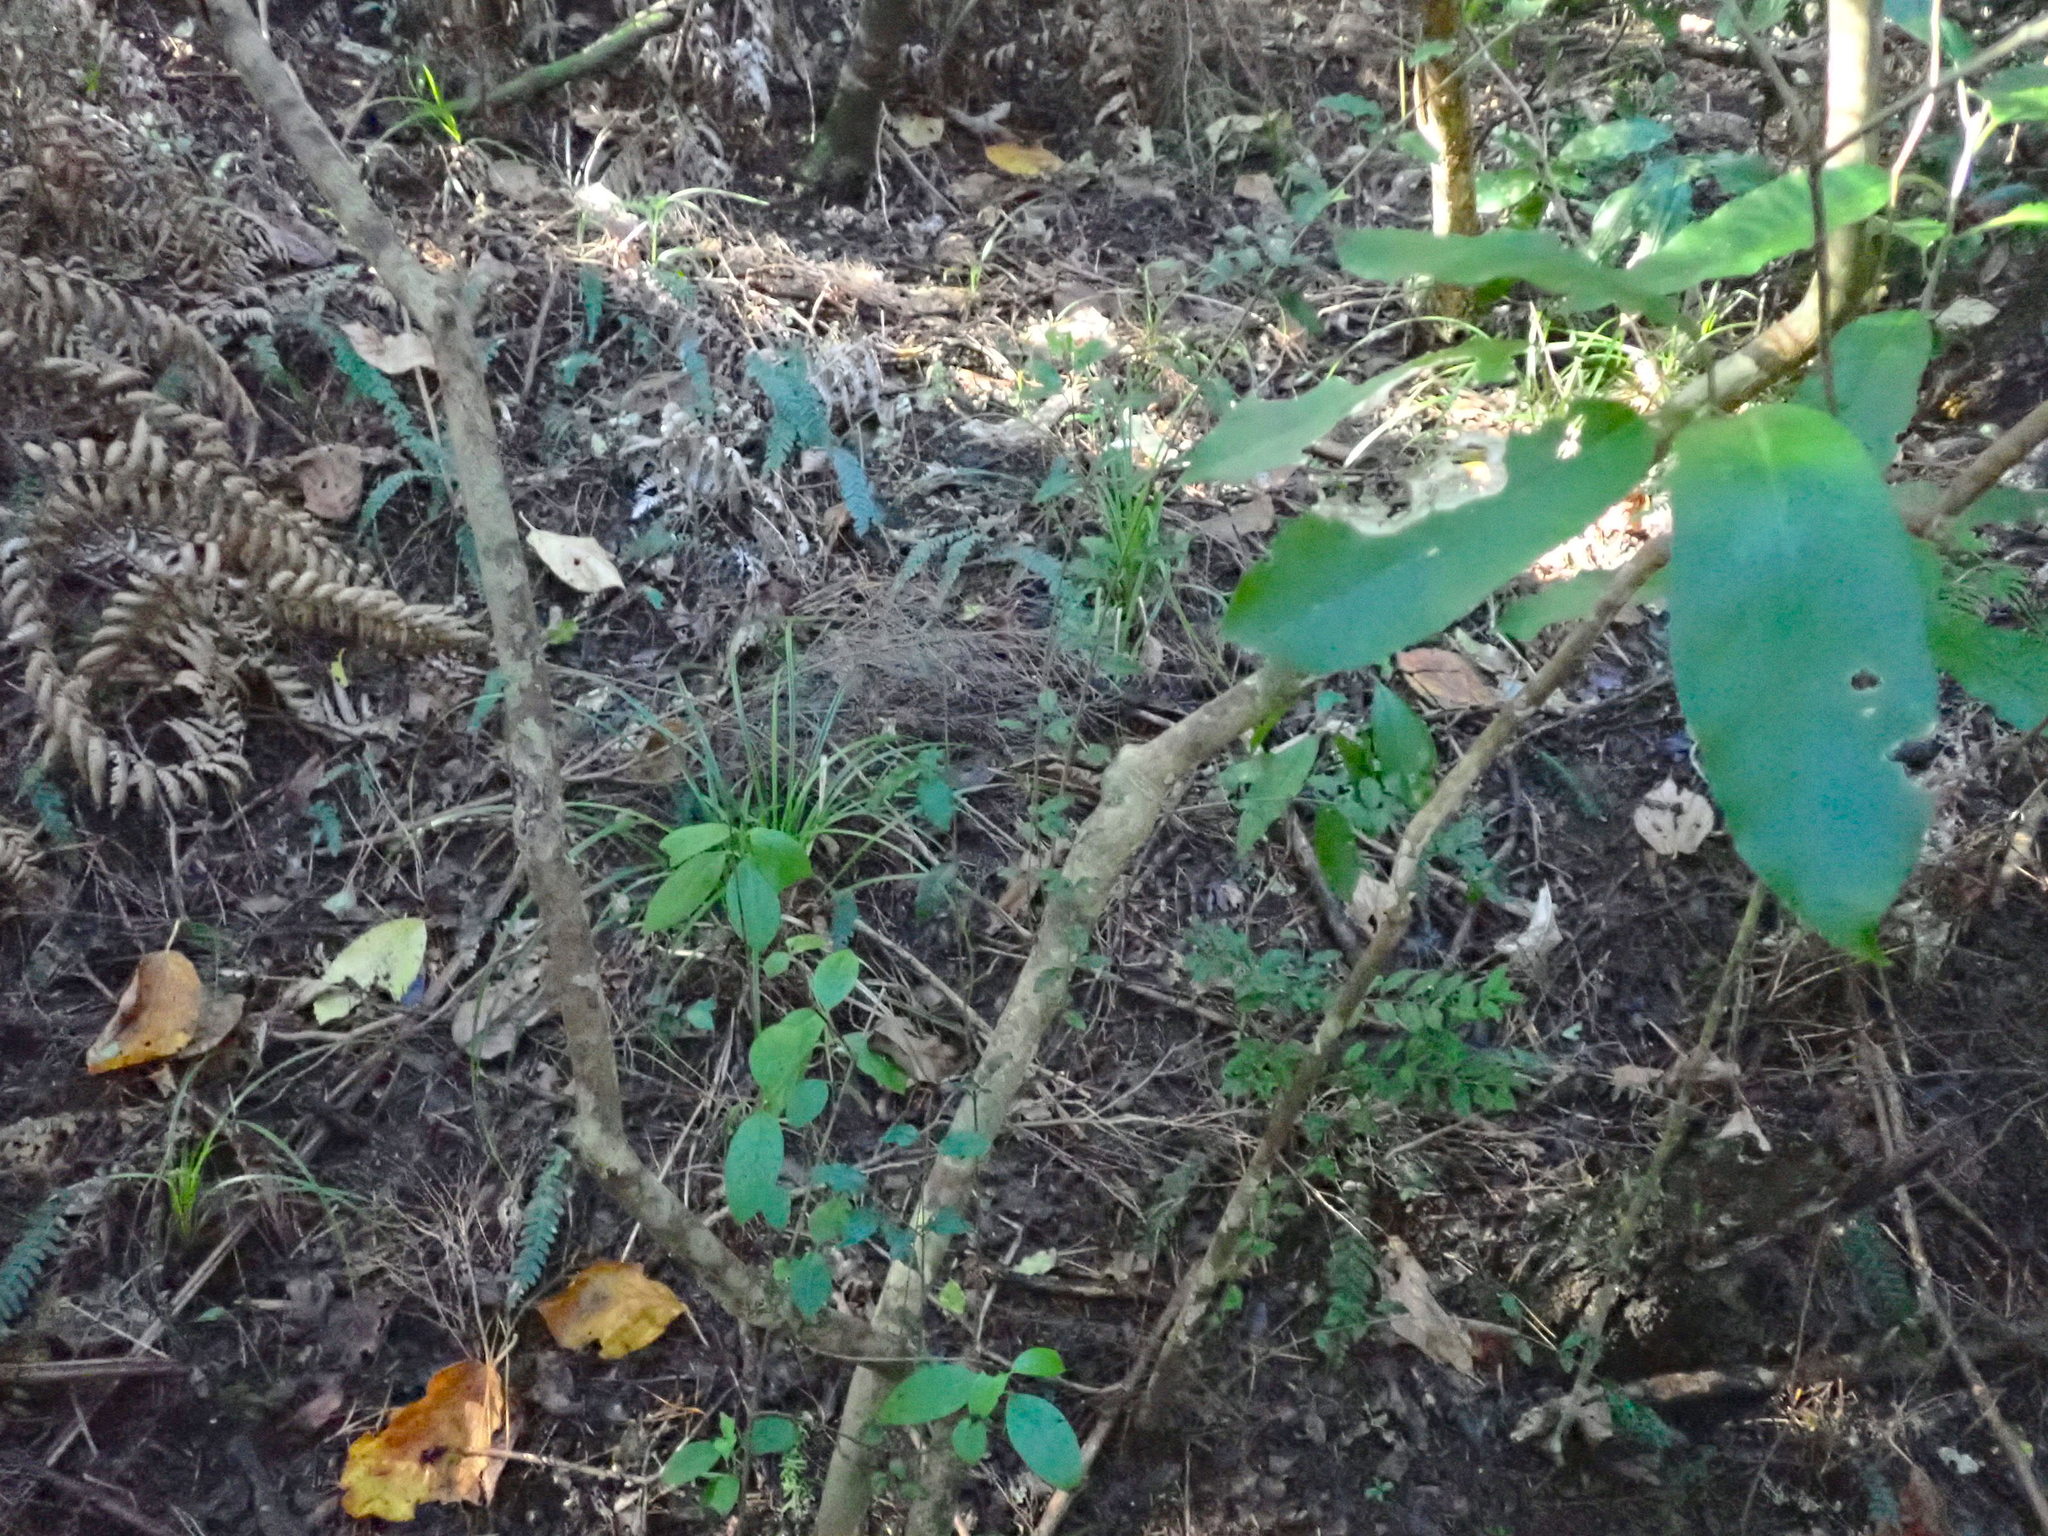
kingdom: Plantae
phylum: Tracheophyta
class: Magnoliopsida
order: Lamiales
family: Oleaceae
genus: Ligustrum
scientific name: Ligustrum sinense
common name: Chinese privet
